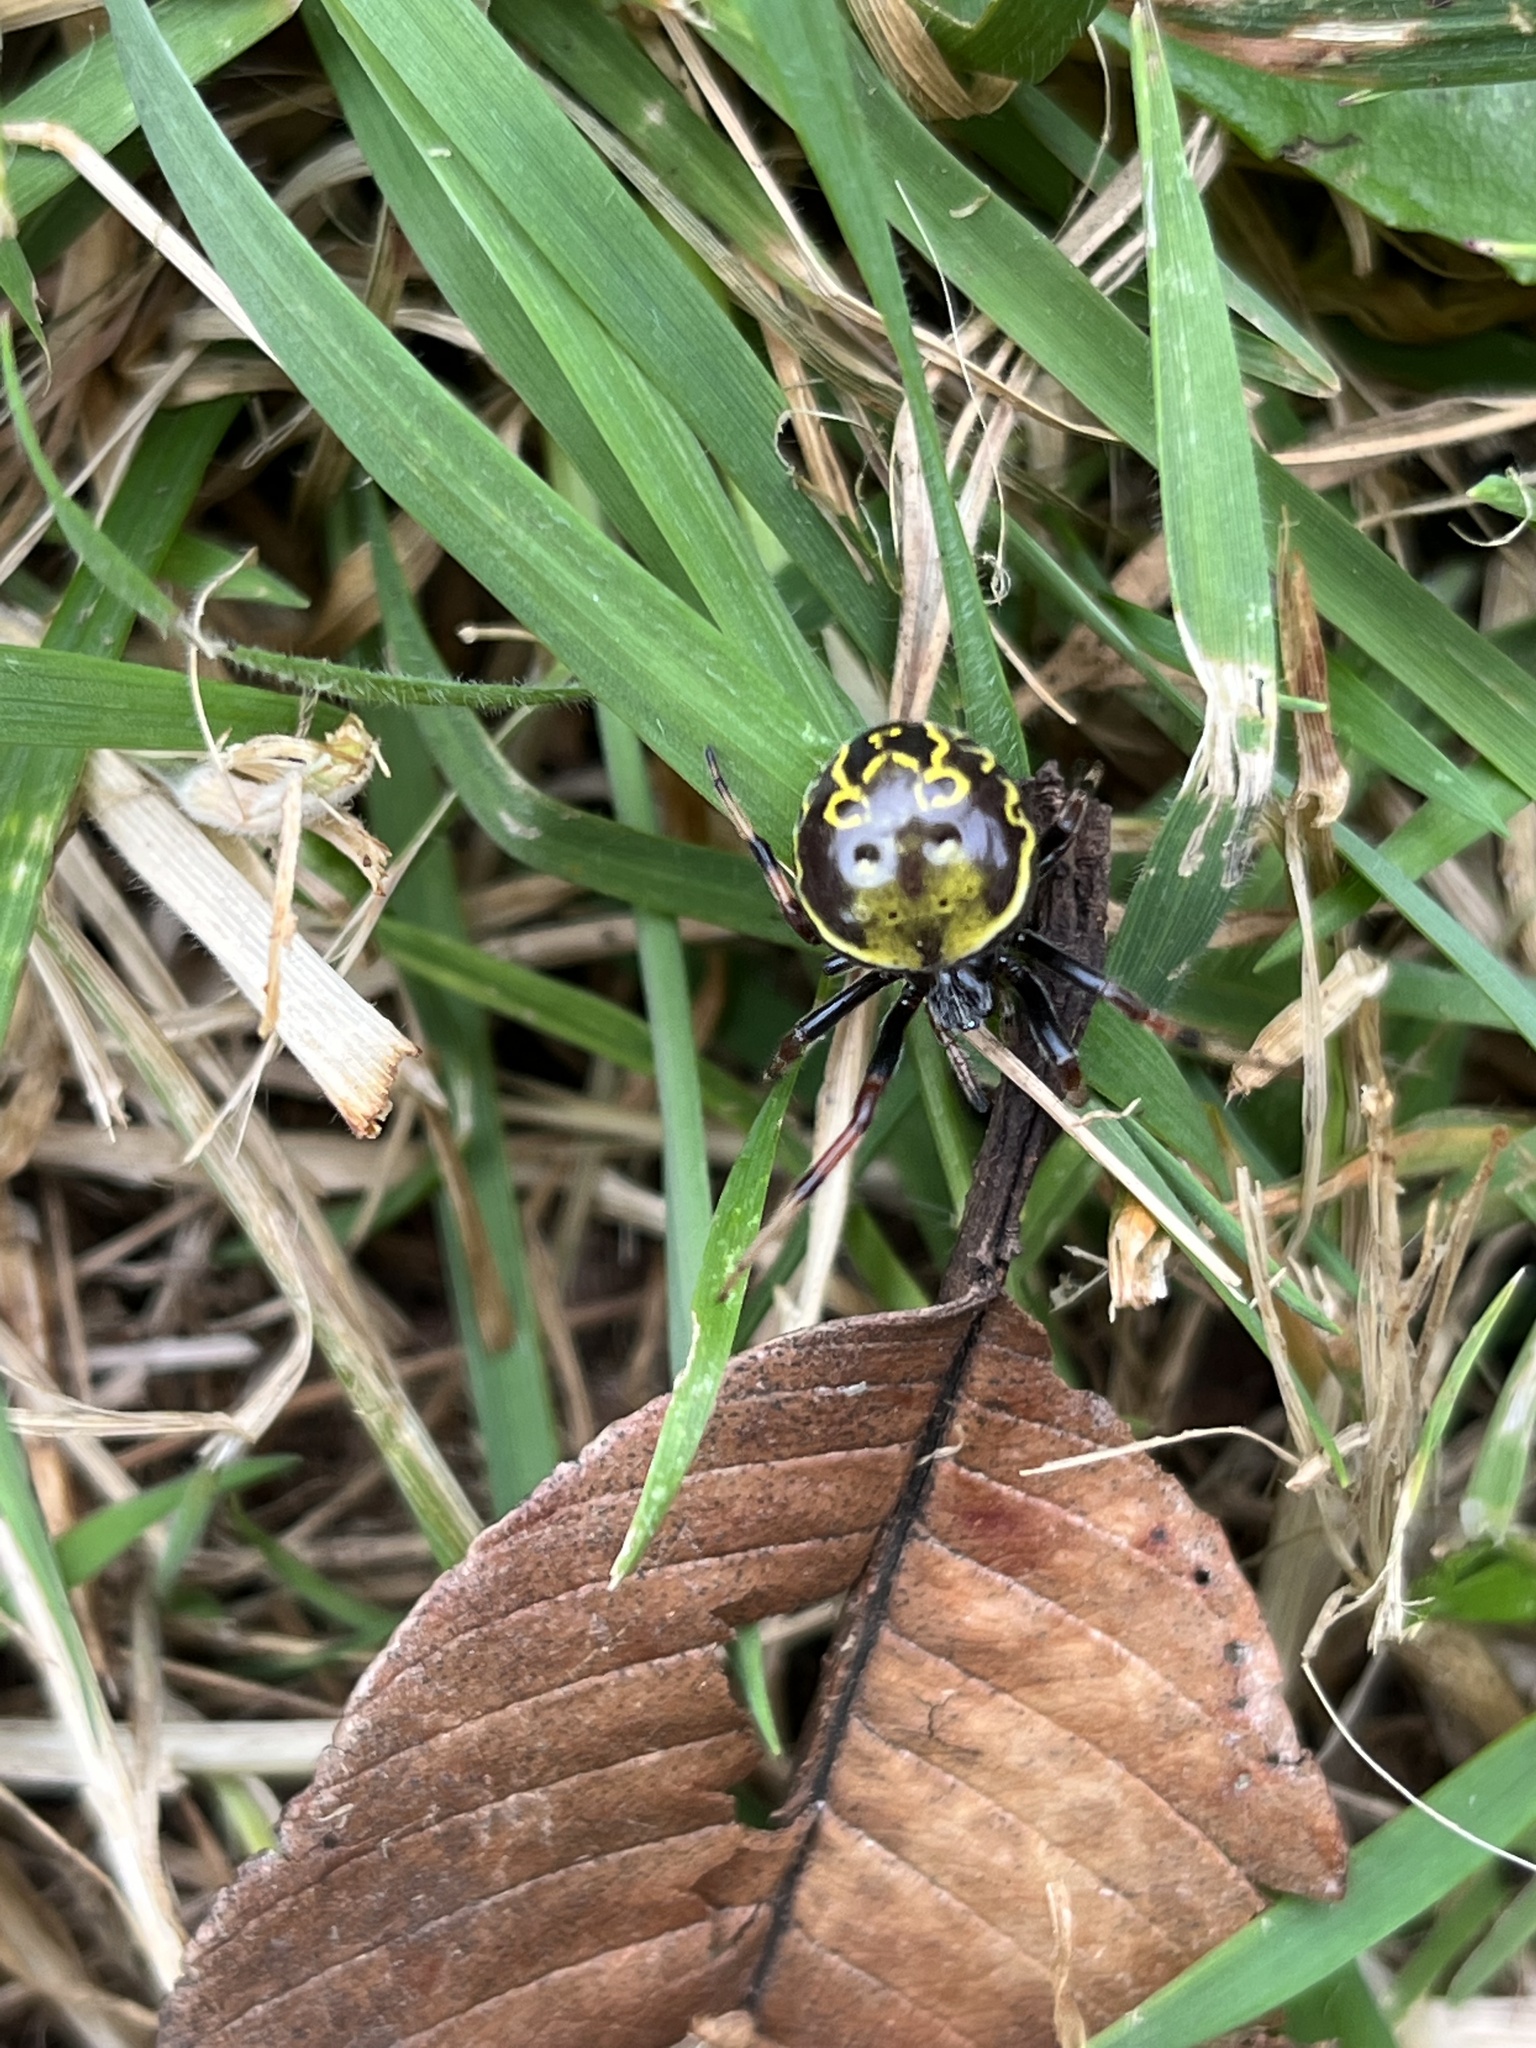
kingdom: Animalia
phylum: Arthropoda
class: Arachnida
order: Araneae
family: Araneidae
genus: Araneus
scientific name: Araneus granadensis
